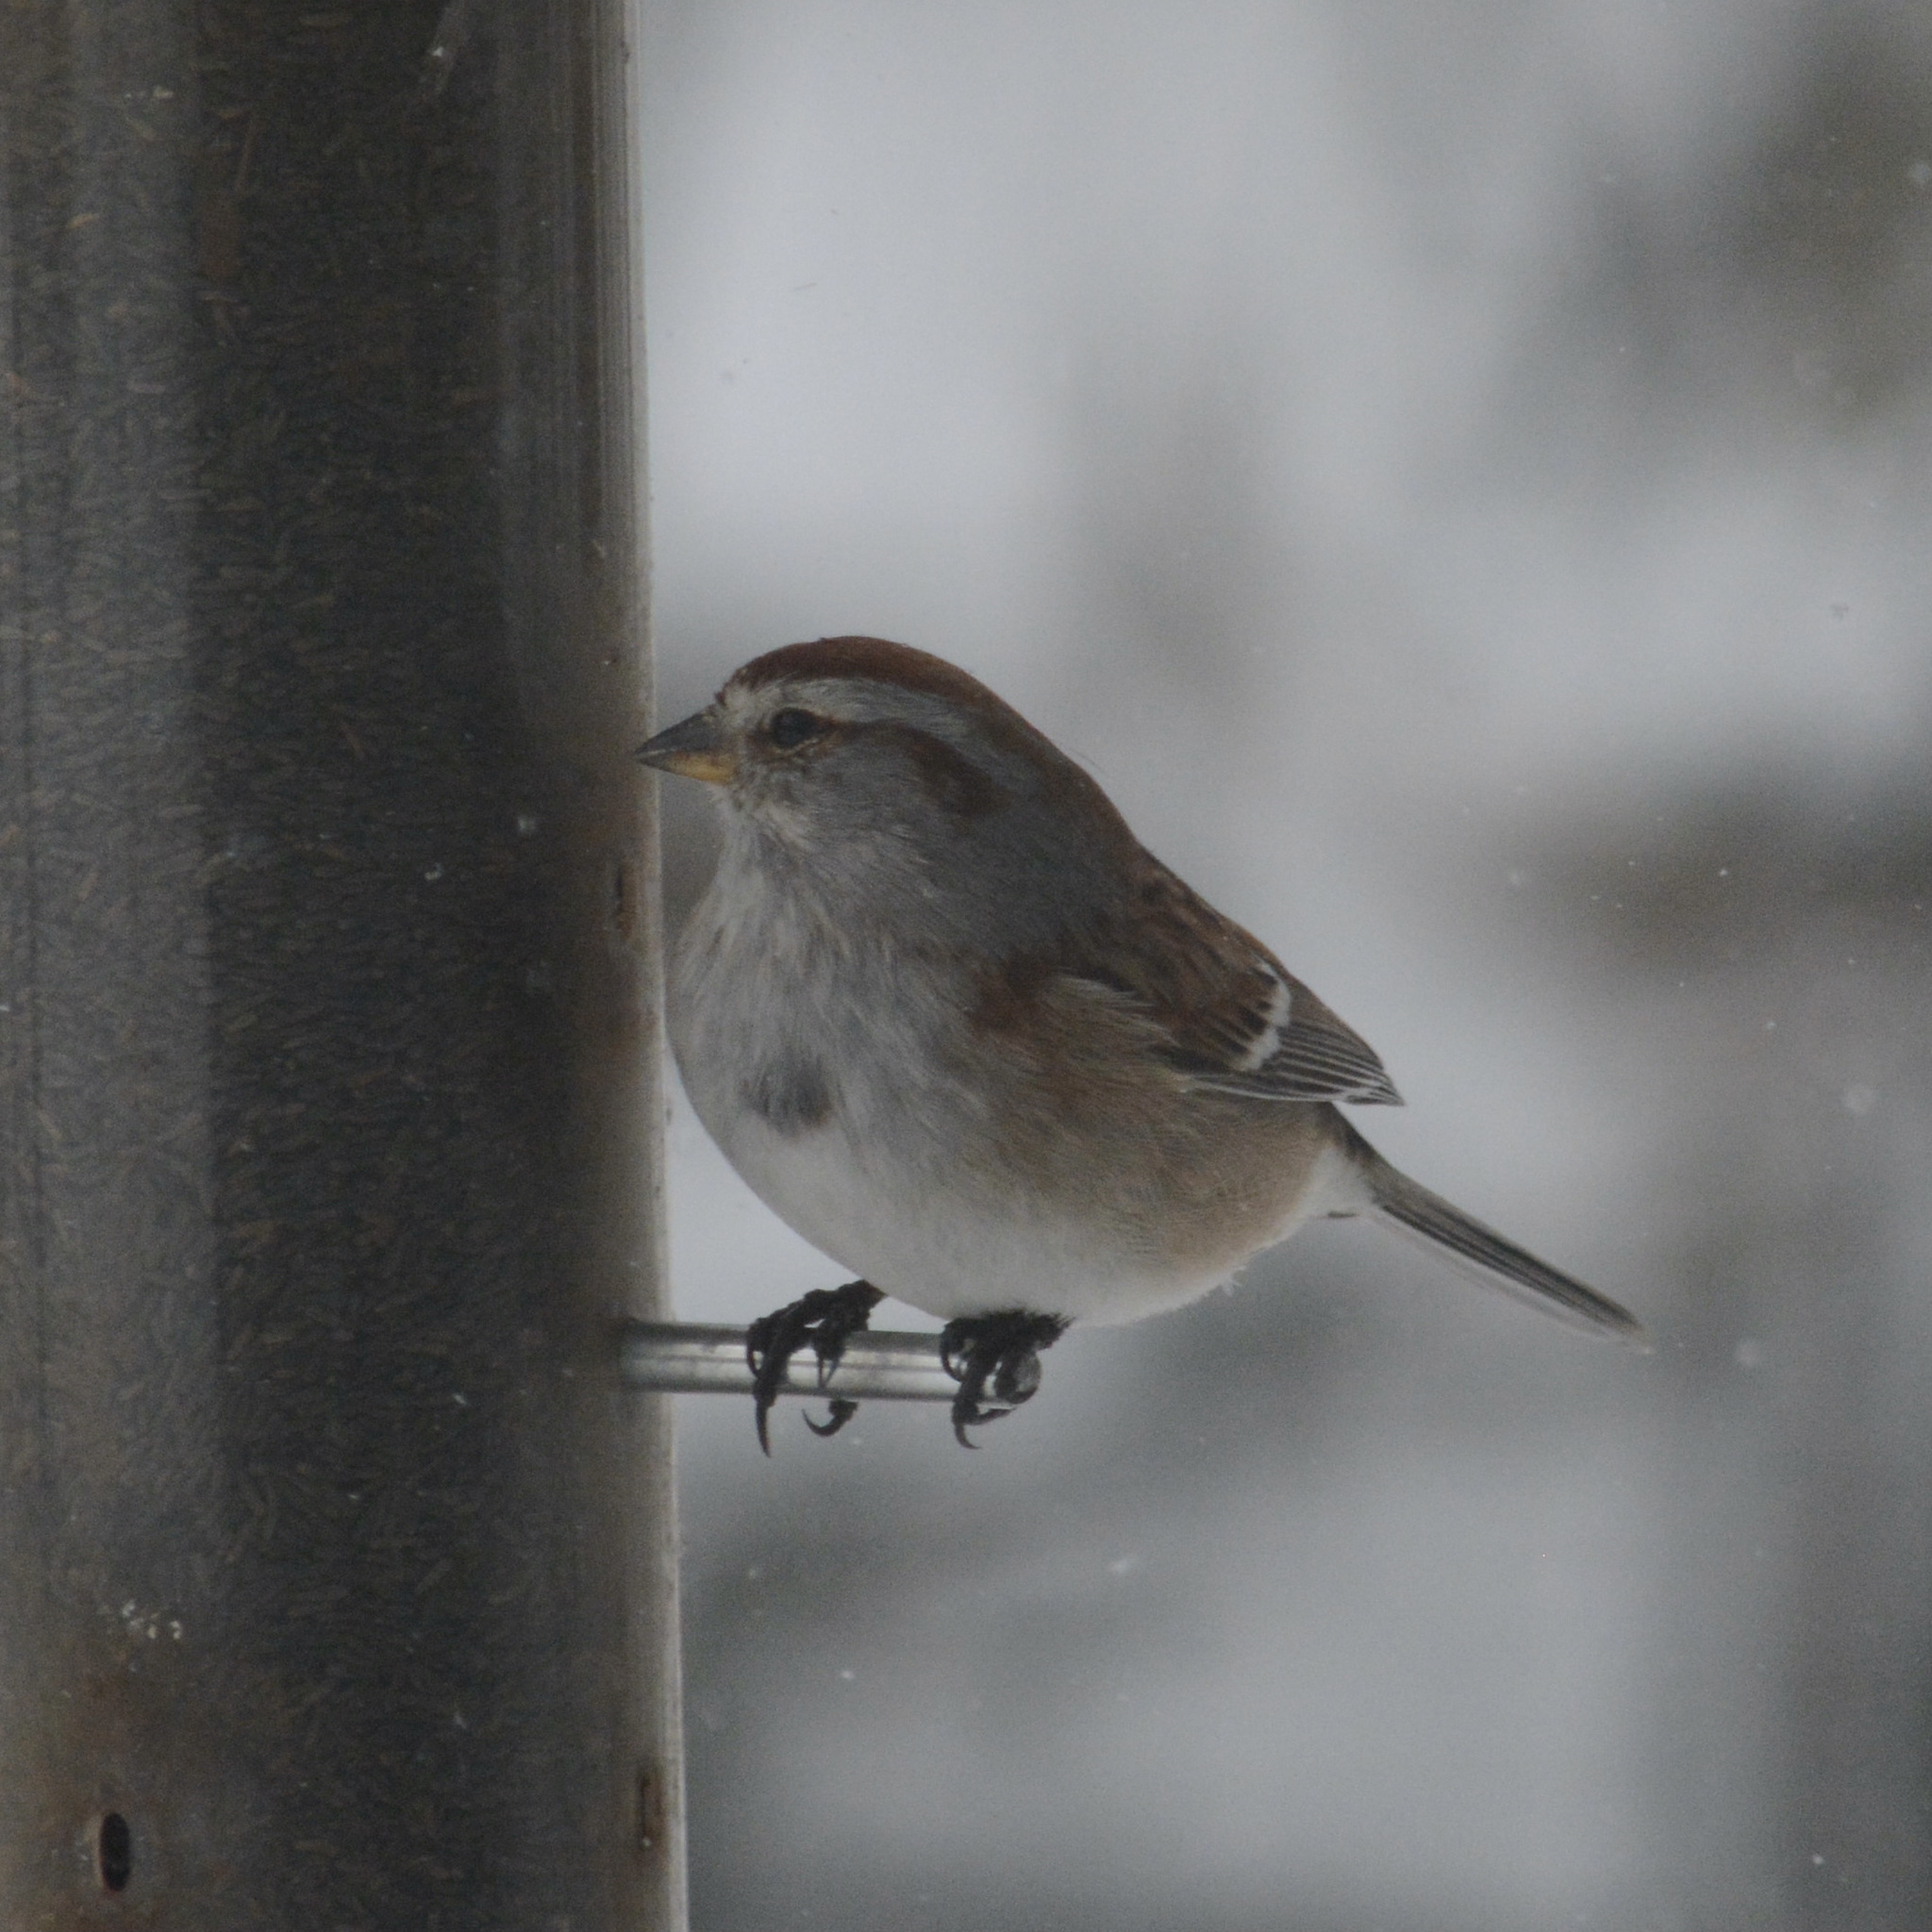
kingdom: Animalia
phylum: Chordata
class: Aves
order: Passeriformes
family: Passerellidae
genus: Spizelloides
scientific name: Spizelloides arborea
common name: American tree sparrow
